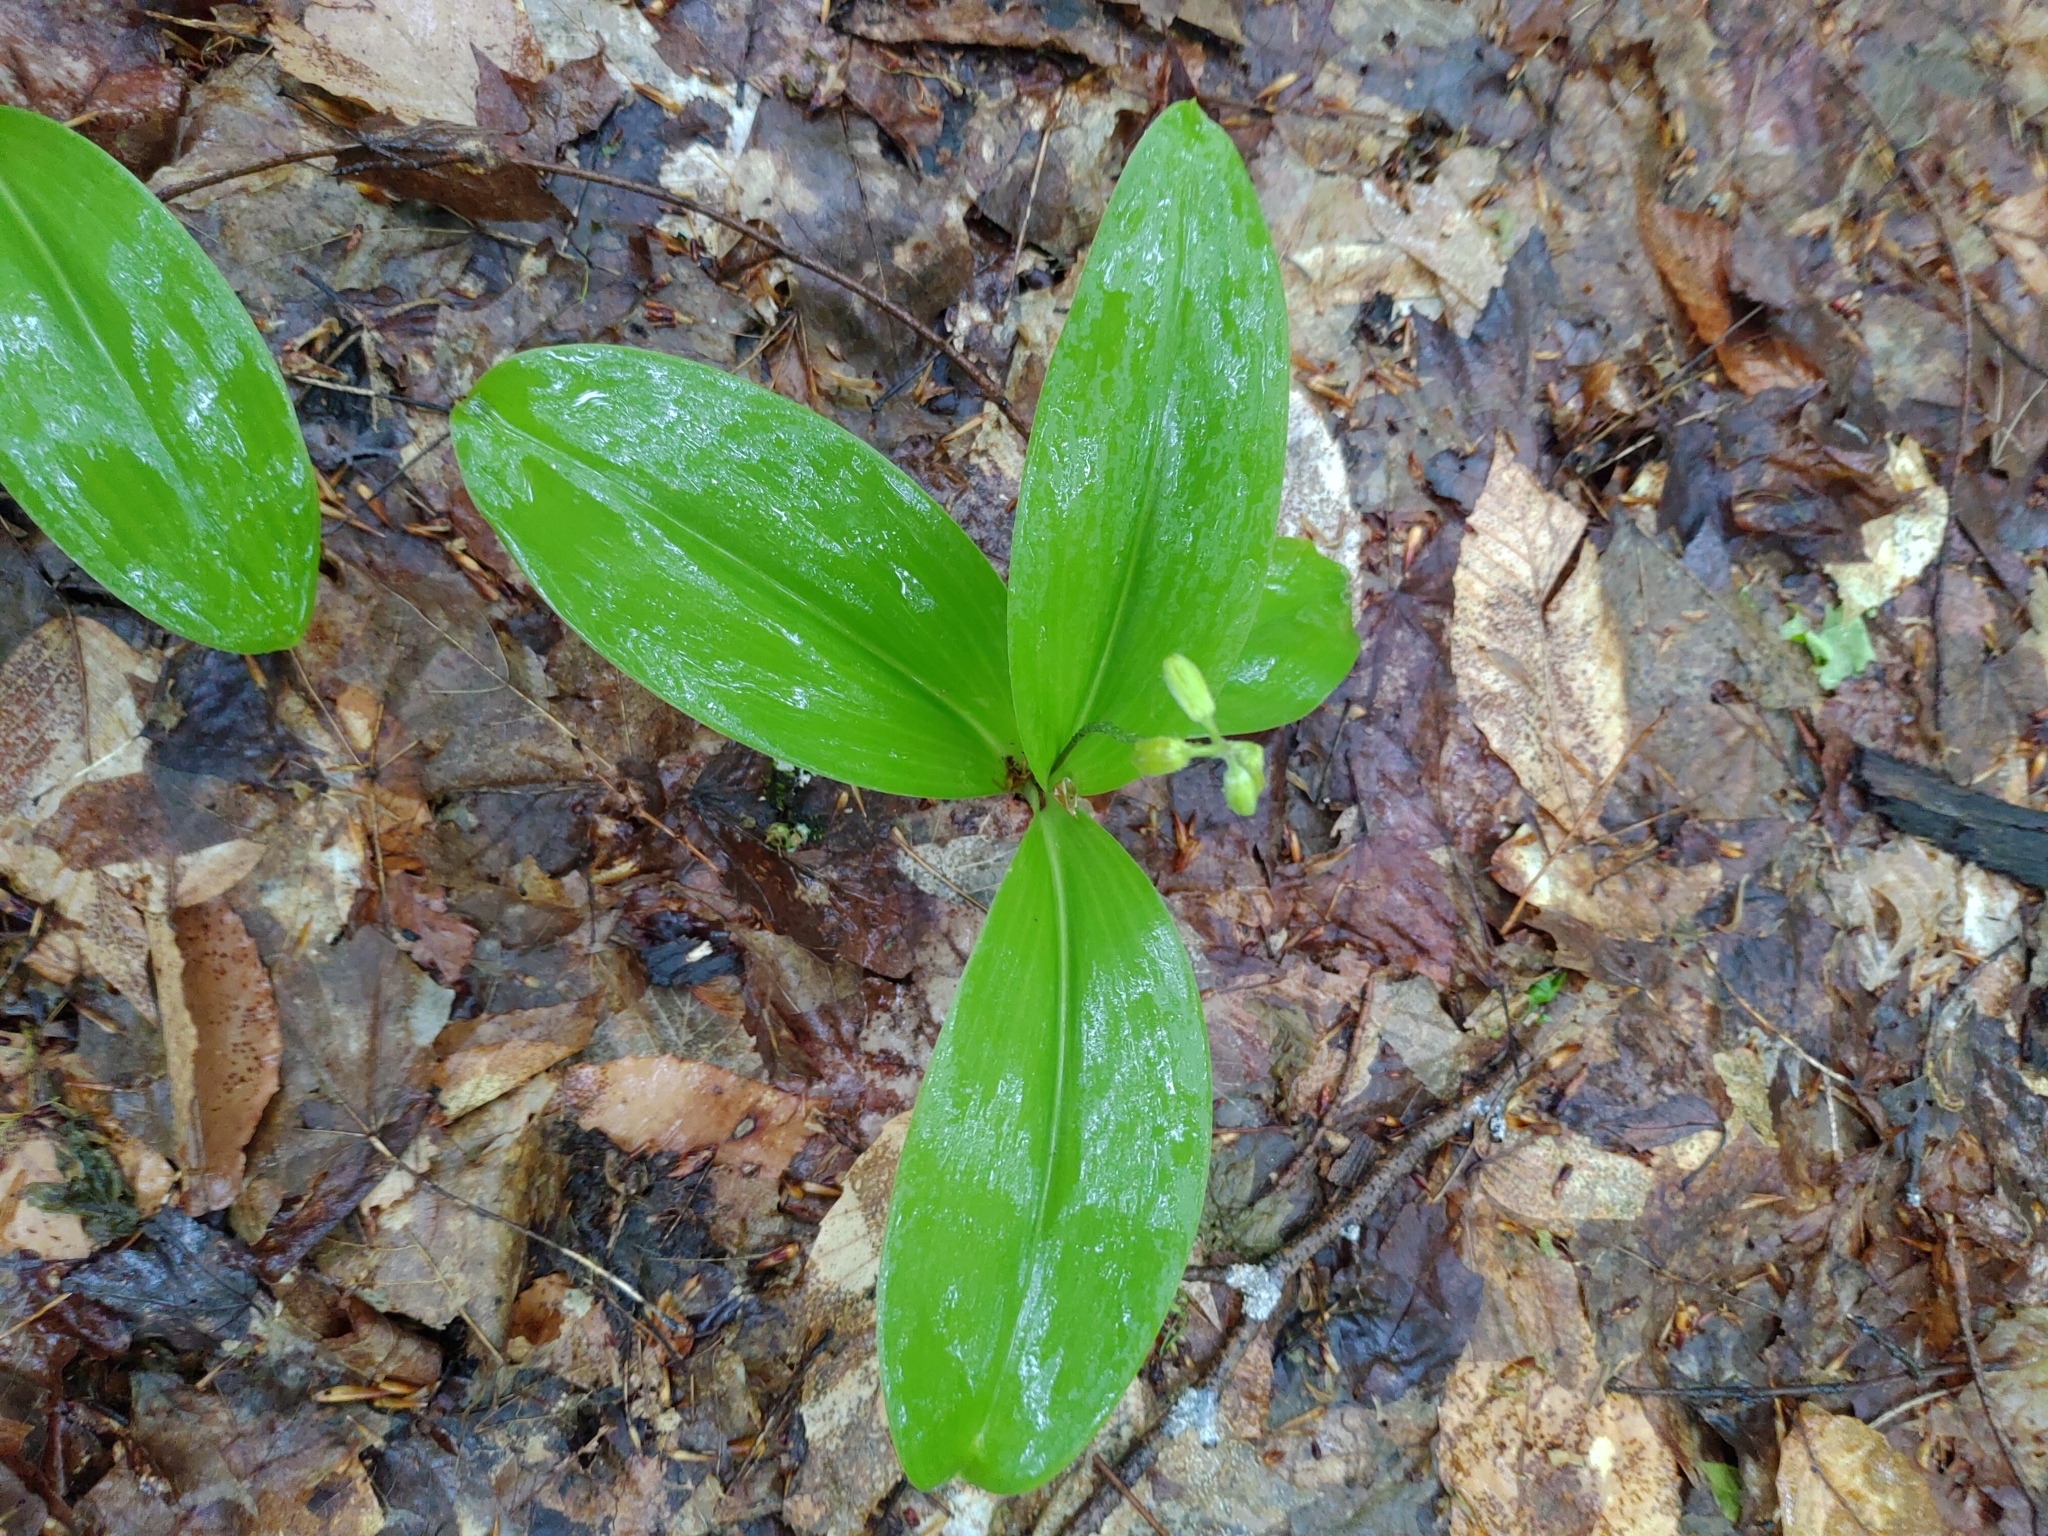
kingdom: Plantae
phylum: Tracheophyta
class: Liliopsida
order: Liliales
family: Liliaceae
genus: Clintonia
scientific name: Clintonia borealis
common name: Yellow clintonia
